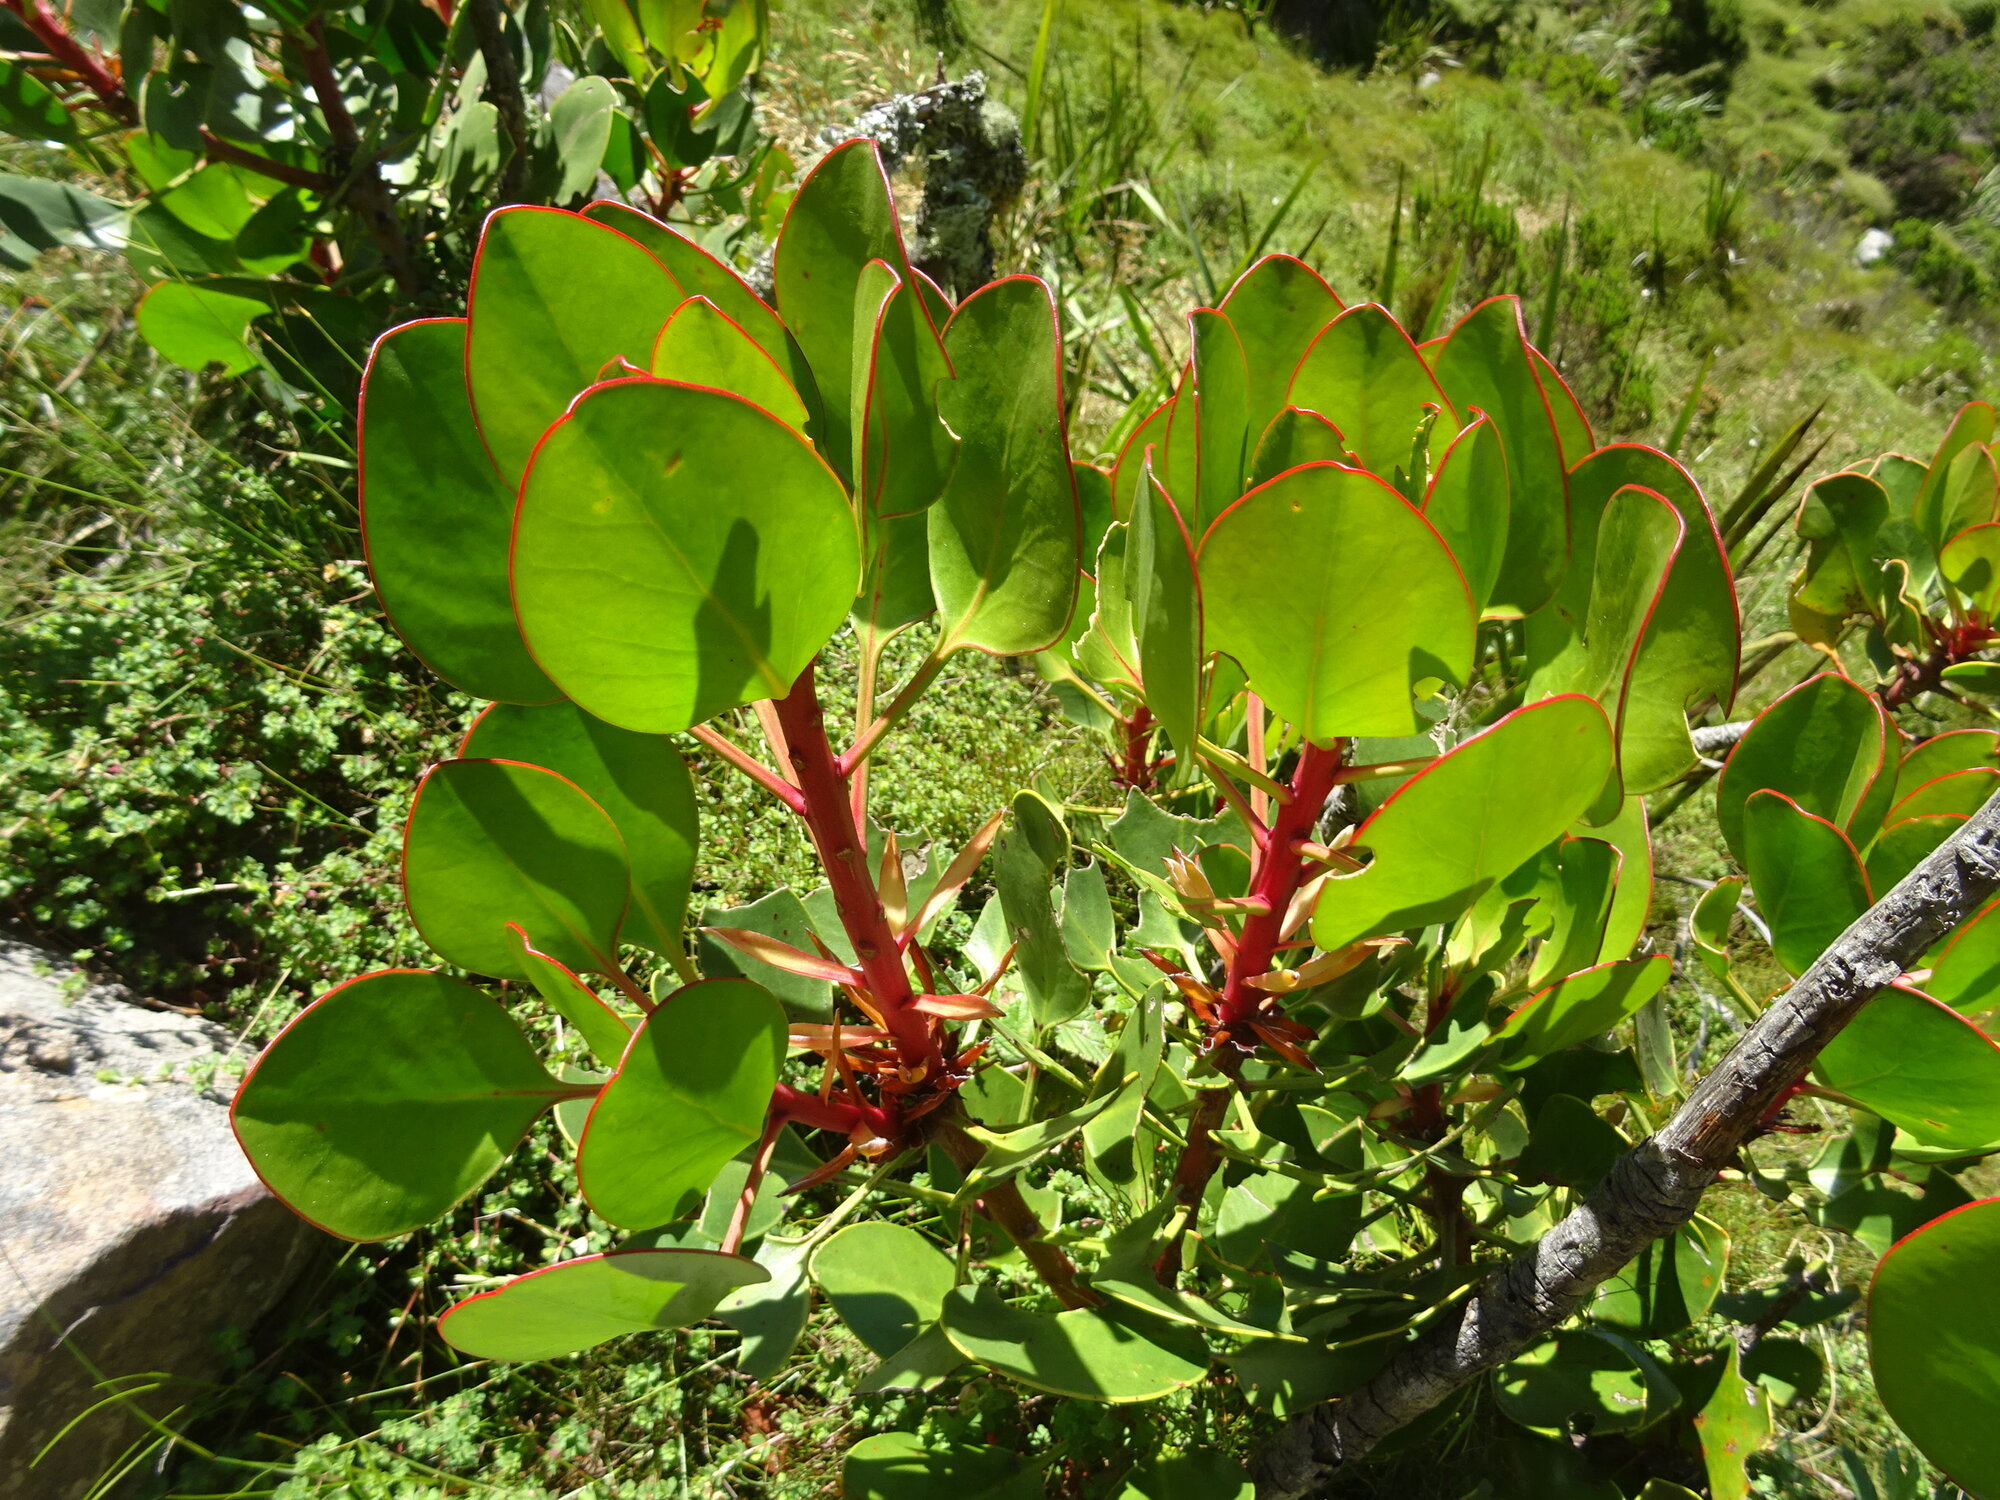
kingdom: Plantae
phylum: Tracheophyta
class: Magnoliopsida
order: Proteales
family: Proteaceae
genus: Protea
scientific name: Protea cynaroides
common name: King protea
